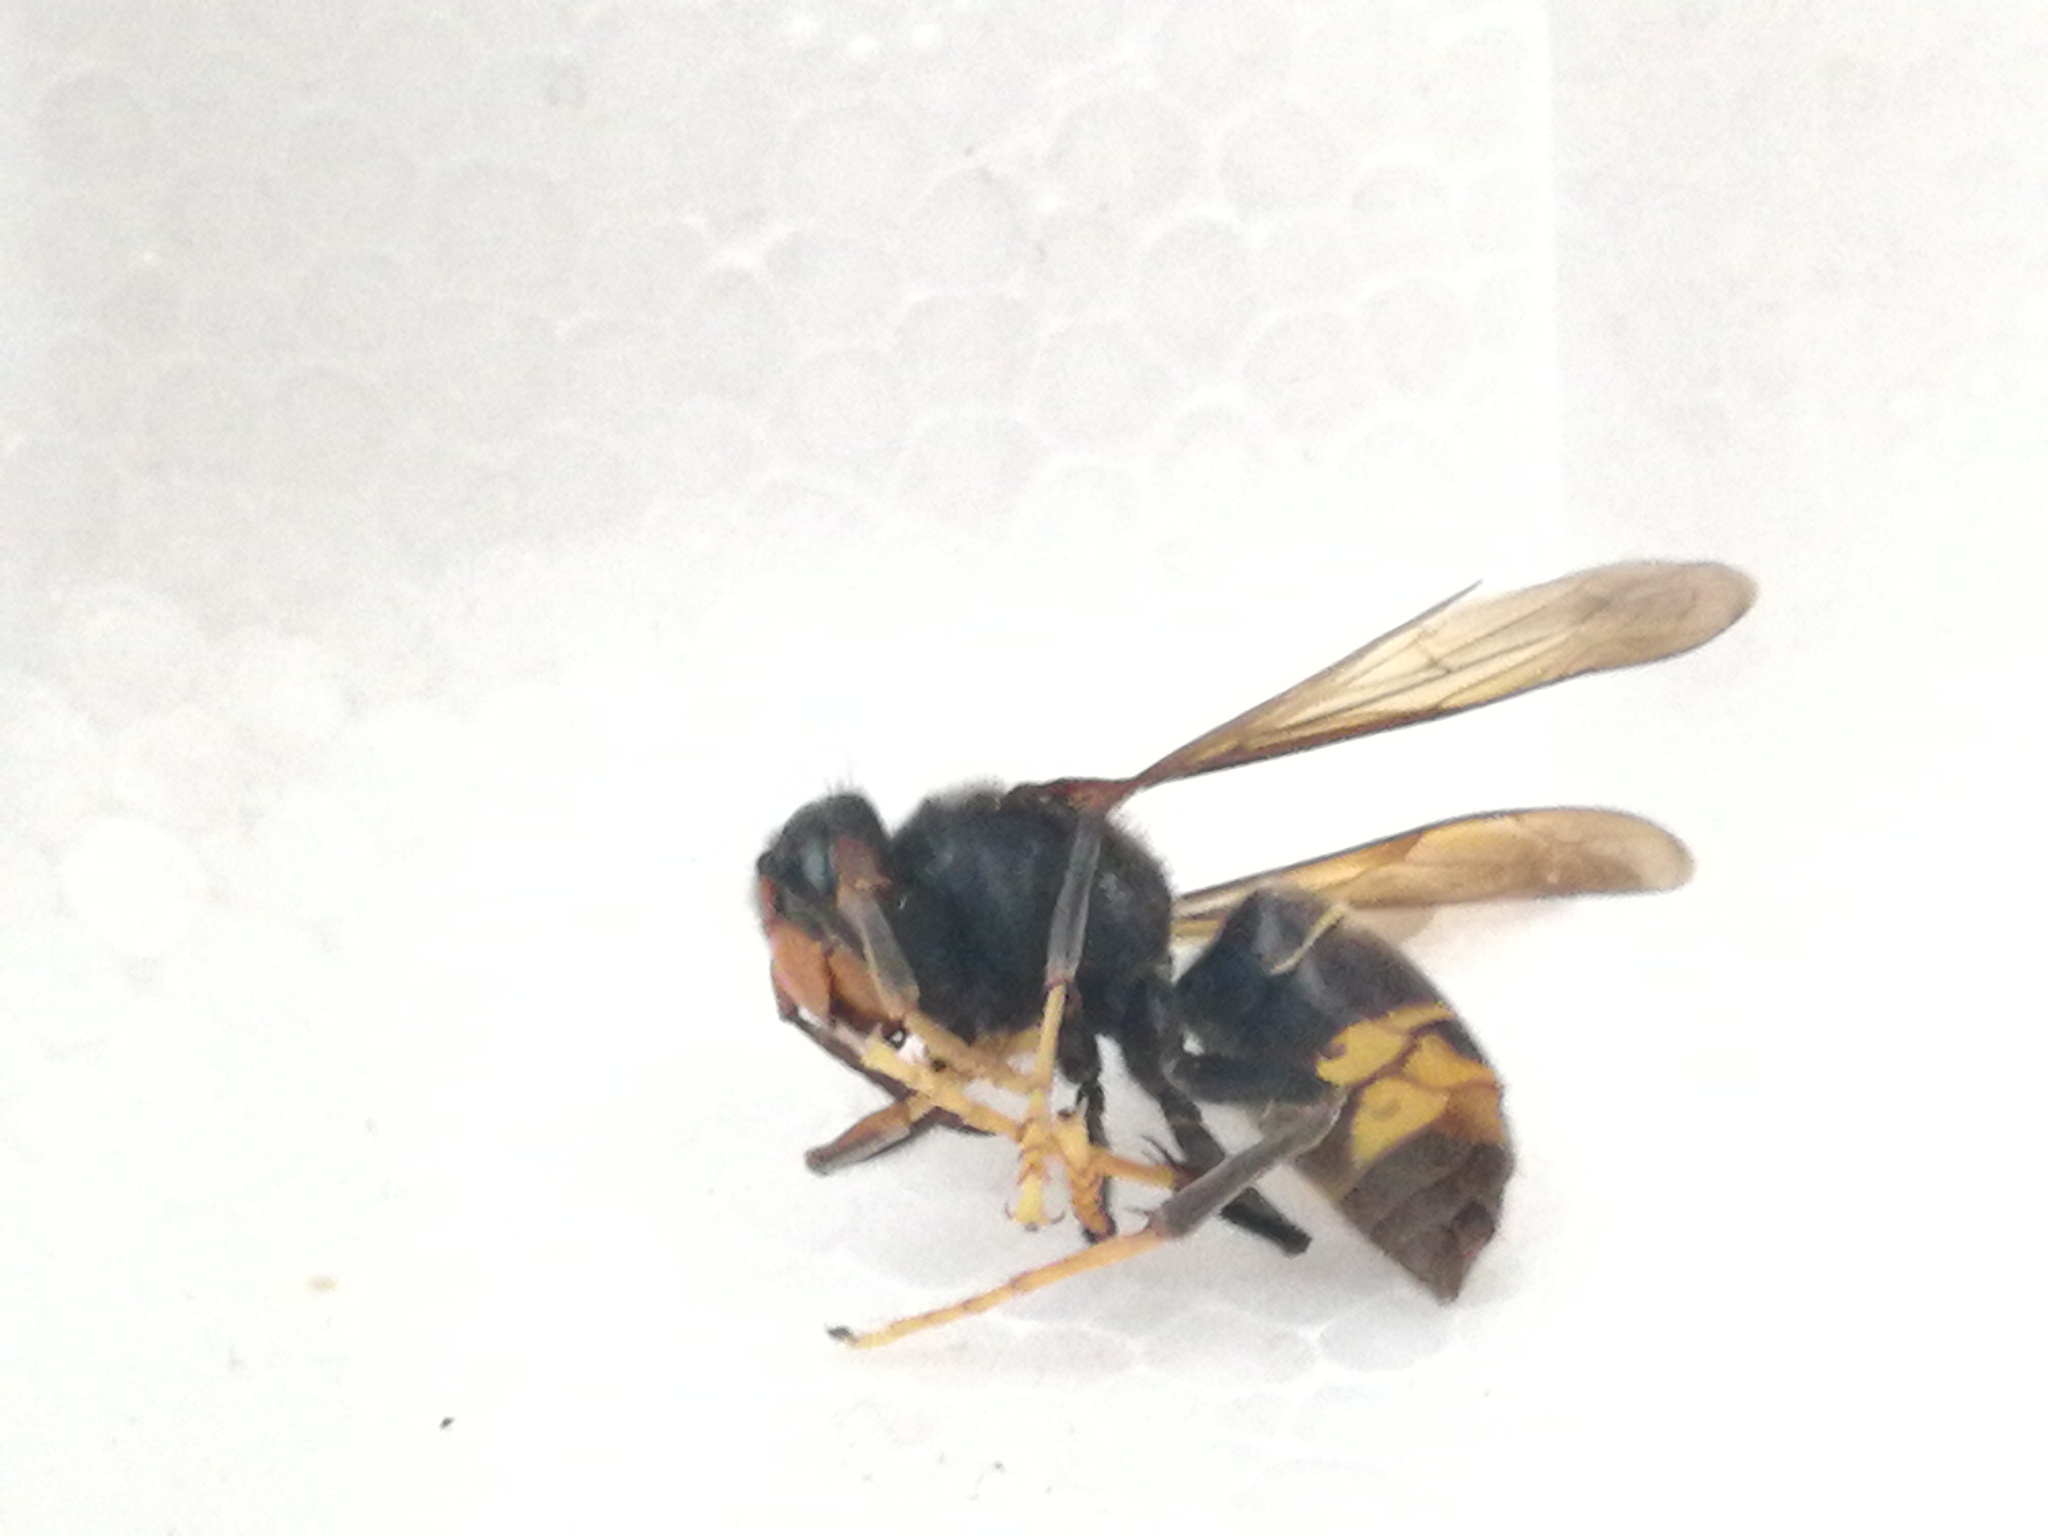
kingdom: Animalia
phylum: Arthropoda
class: Insecta
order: Hymenoptera
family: Vespidae
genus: Vespa
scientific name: Vespa velutina
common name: Asian hornet
